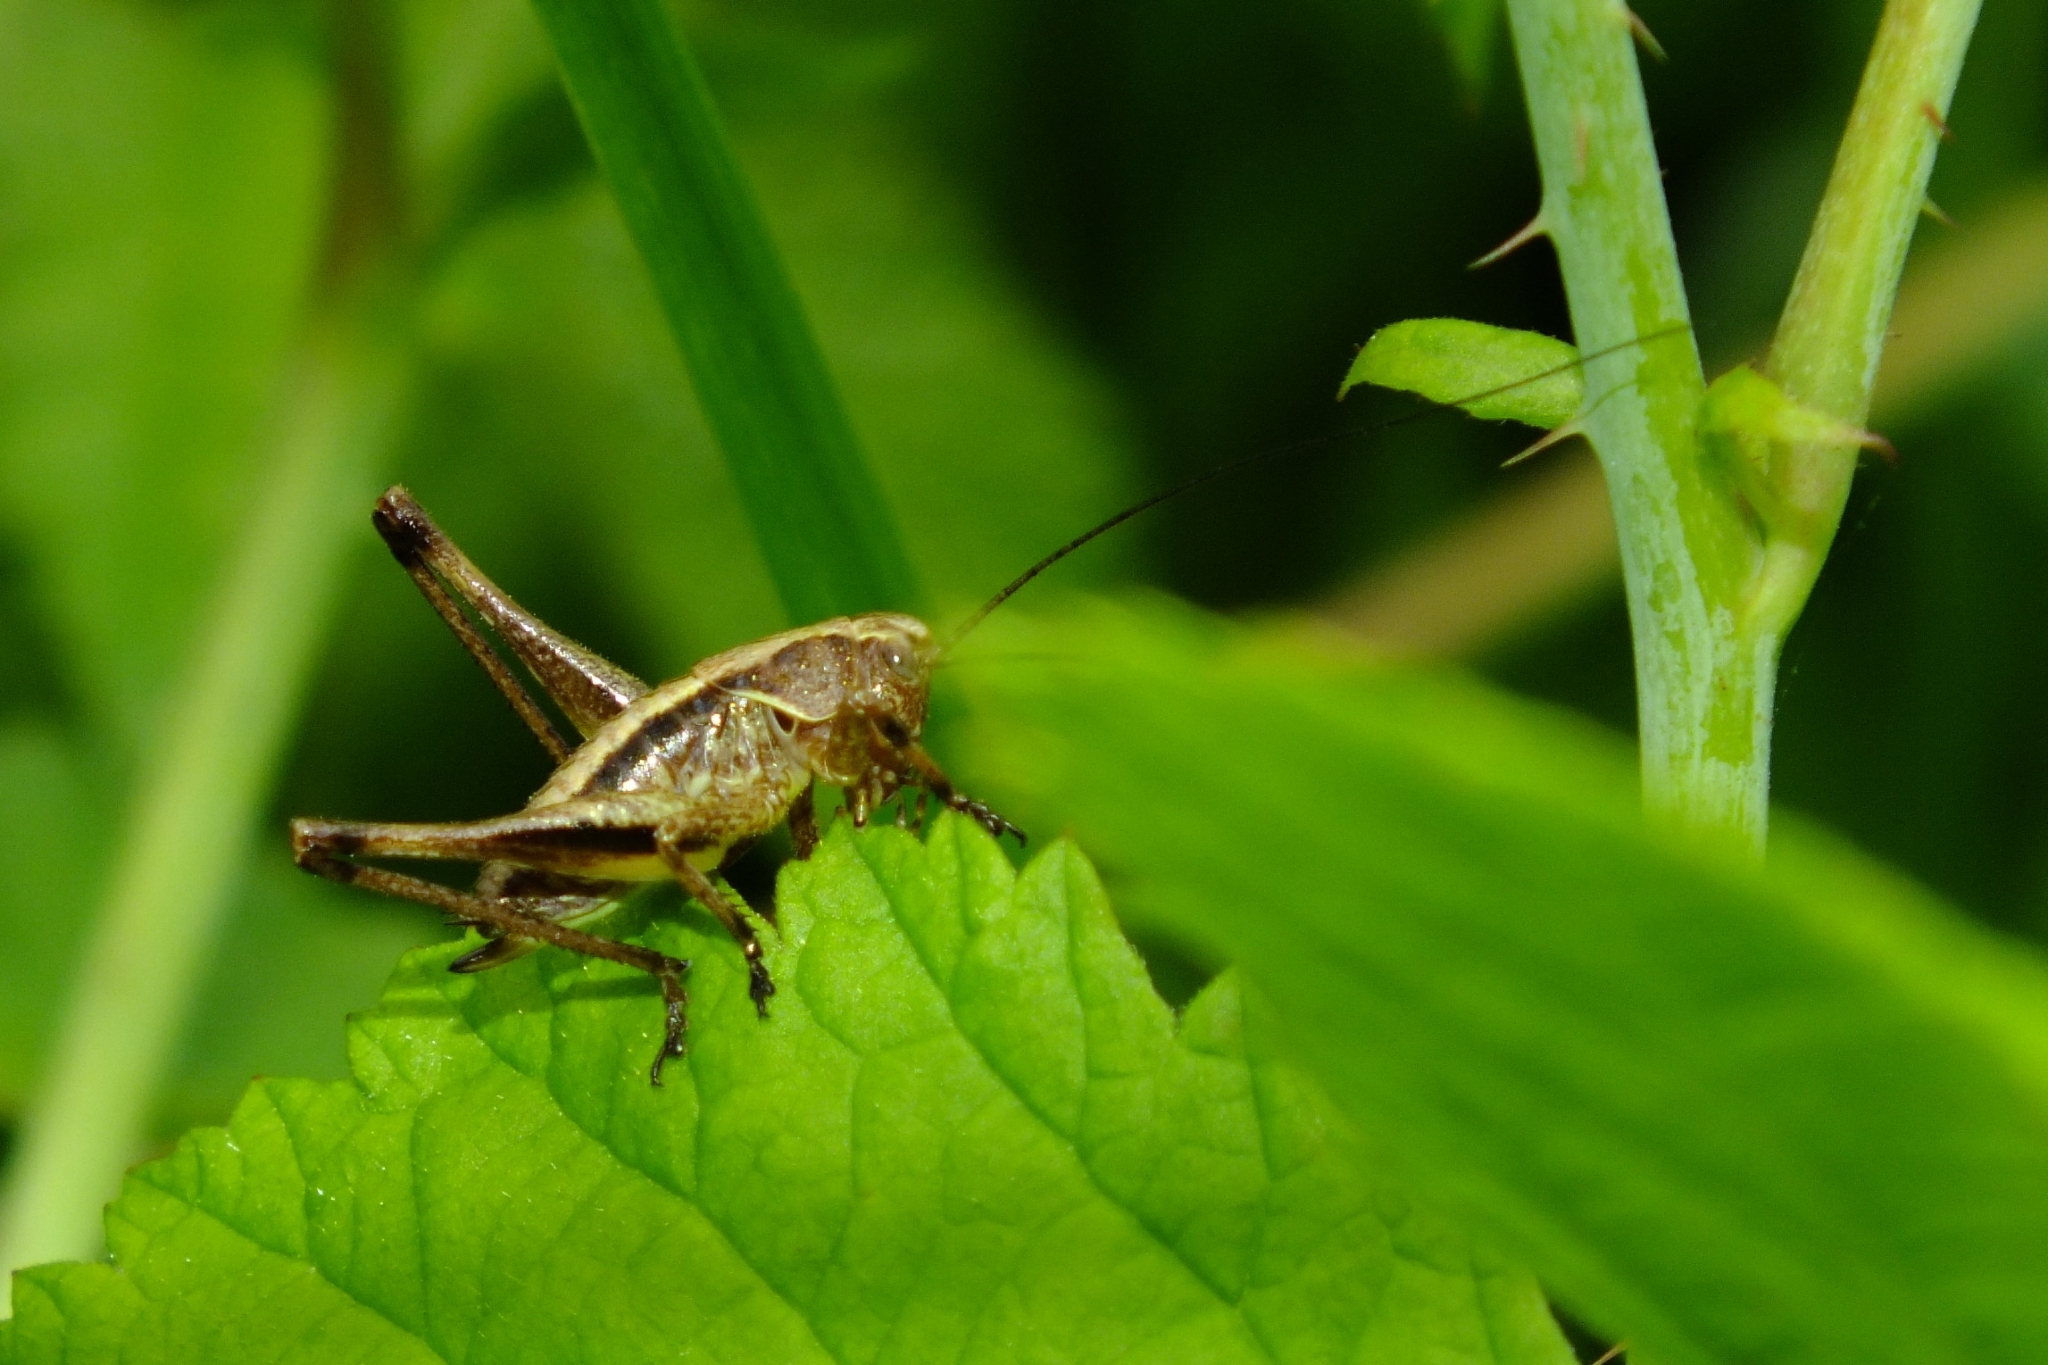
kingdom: Animalia
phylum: Arthropoda
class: Insecta
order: Orthoptera
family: Tettigoniidae
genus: Pholidoptera
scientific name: Pholidoptera griseoaptera
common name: Dark bush-cricket
